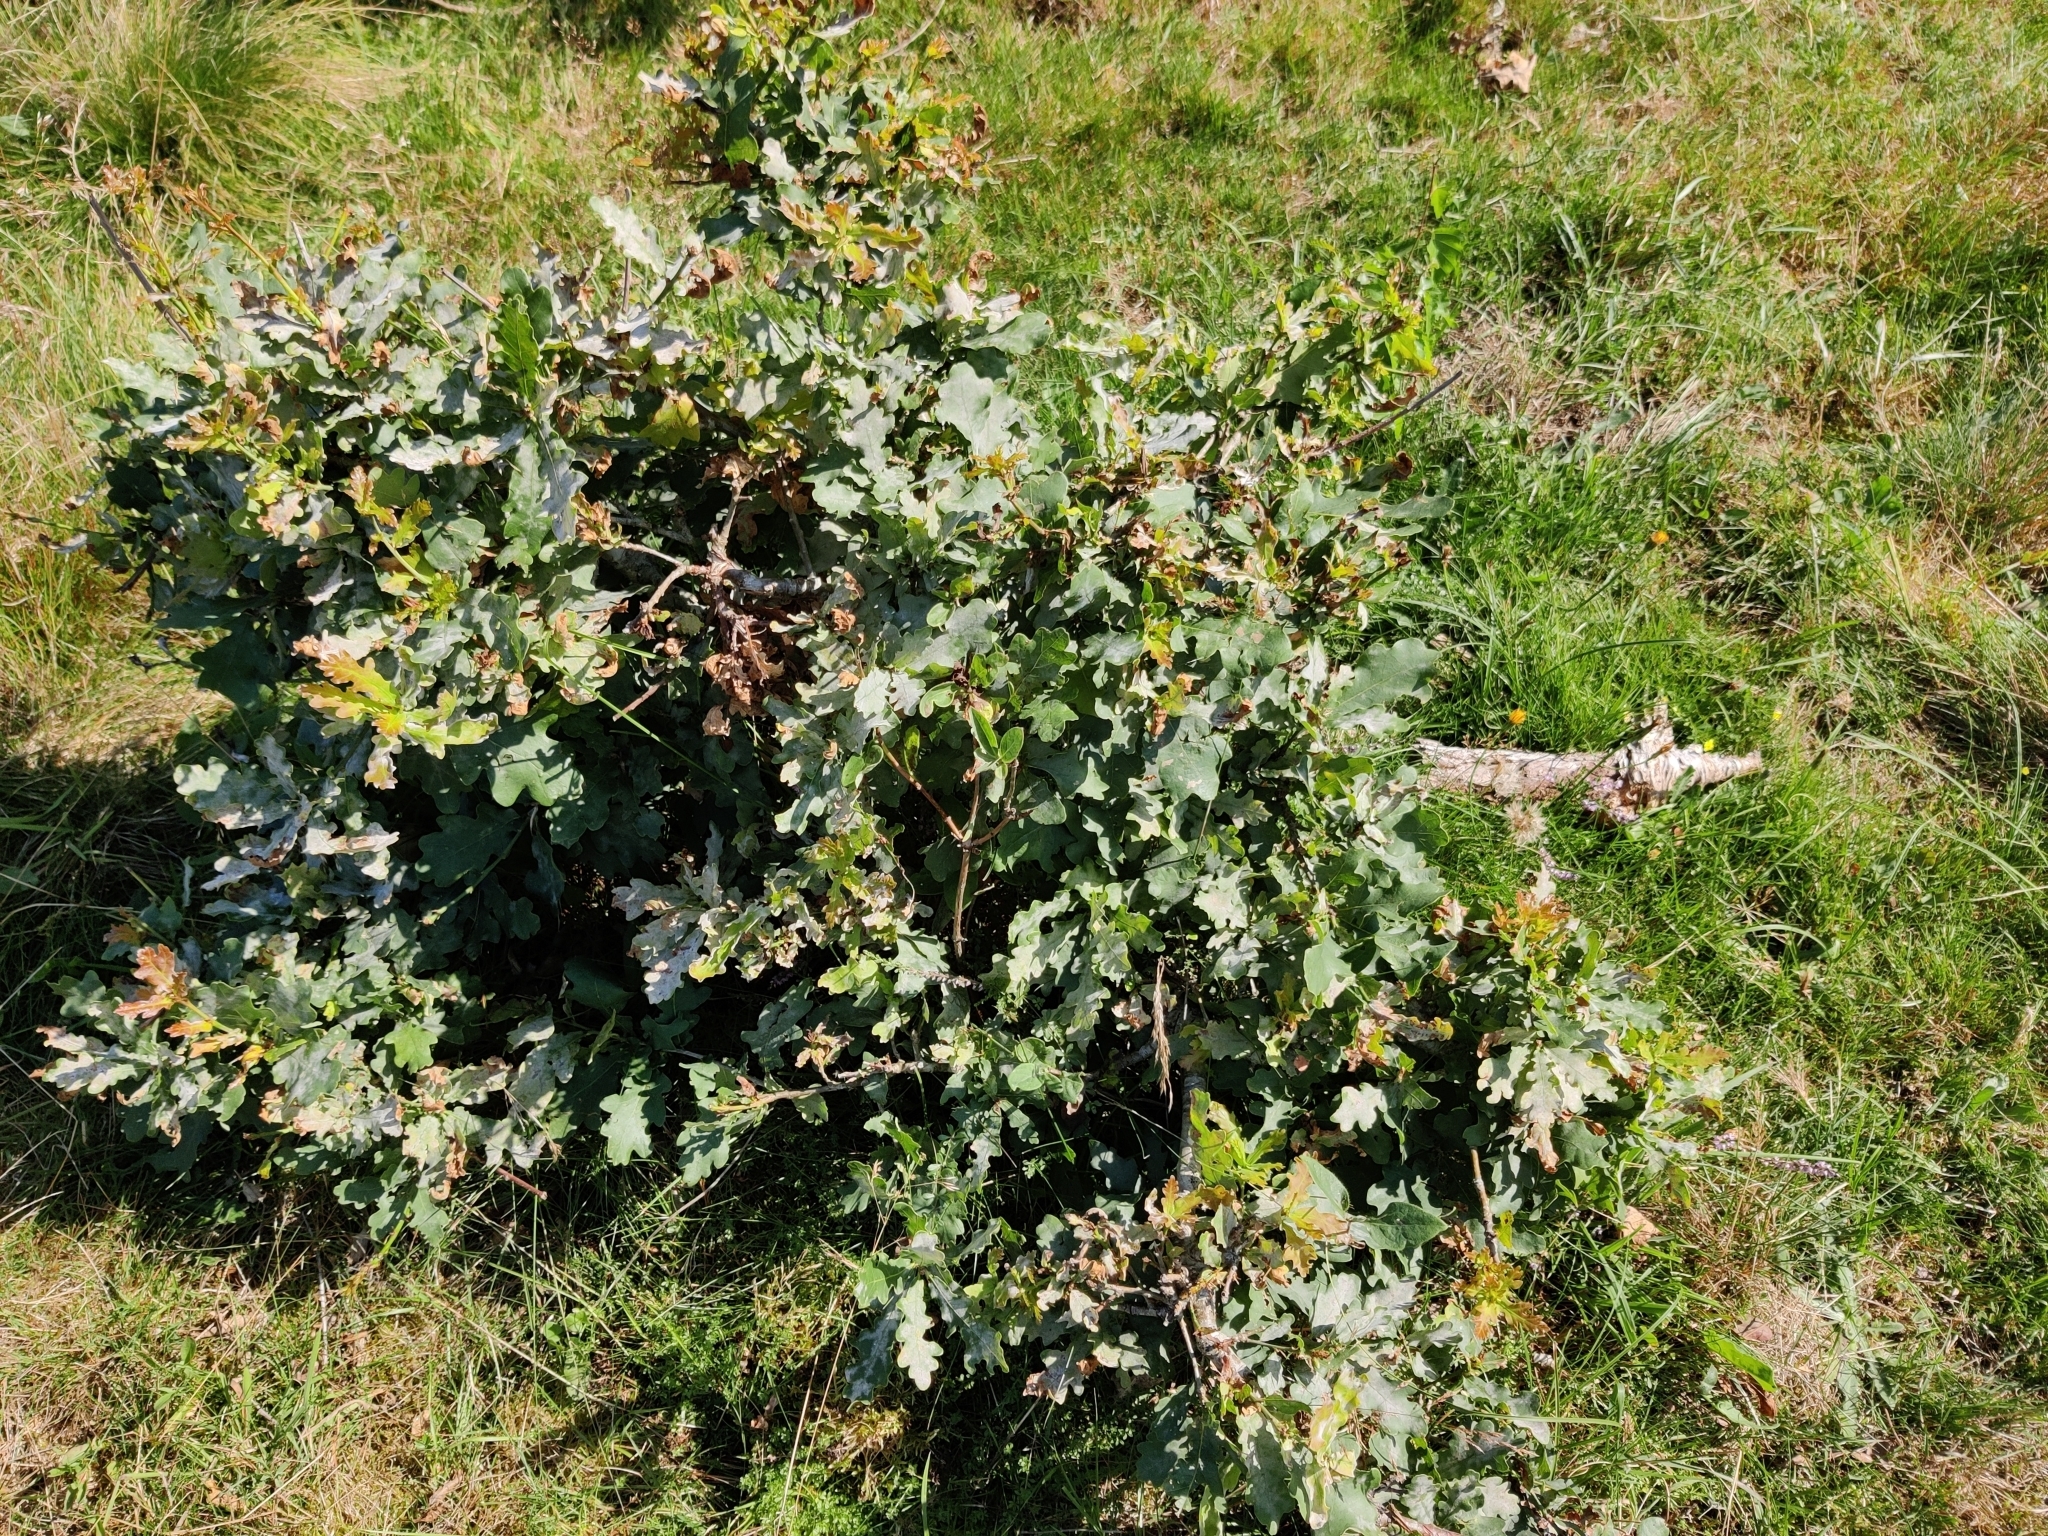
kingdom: Plantae
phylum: Tracheophyta
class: Magnoliopsida
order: Fagales
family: Fagaceae
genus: Quercus
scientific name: Quercus robur
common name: Pedunculate oak
